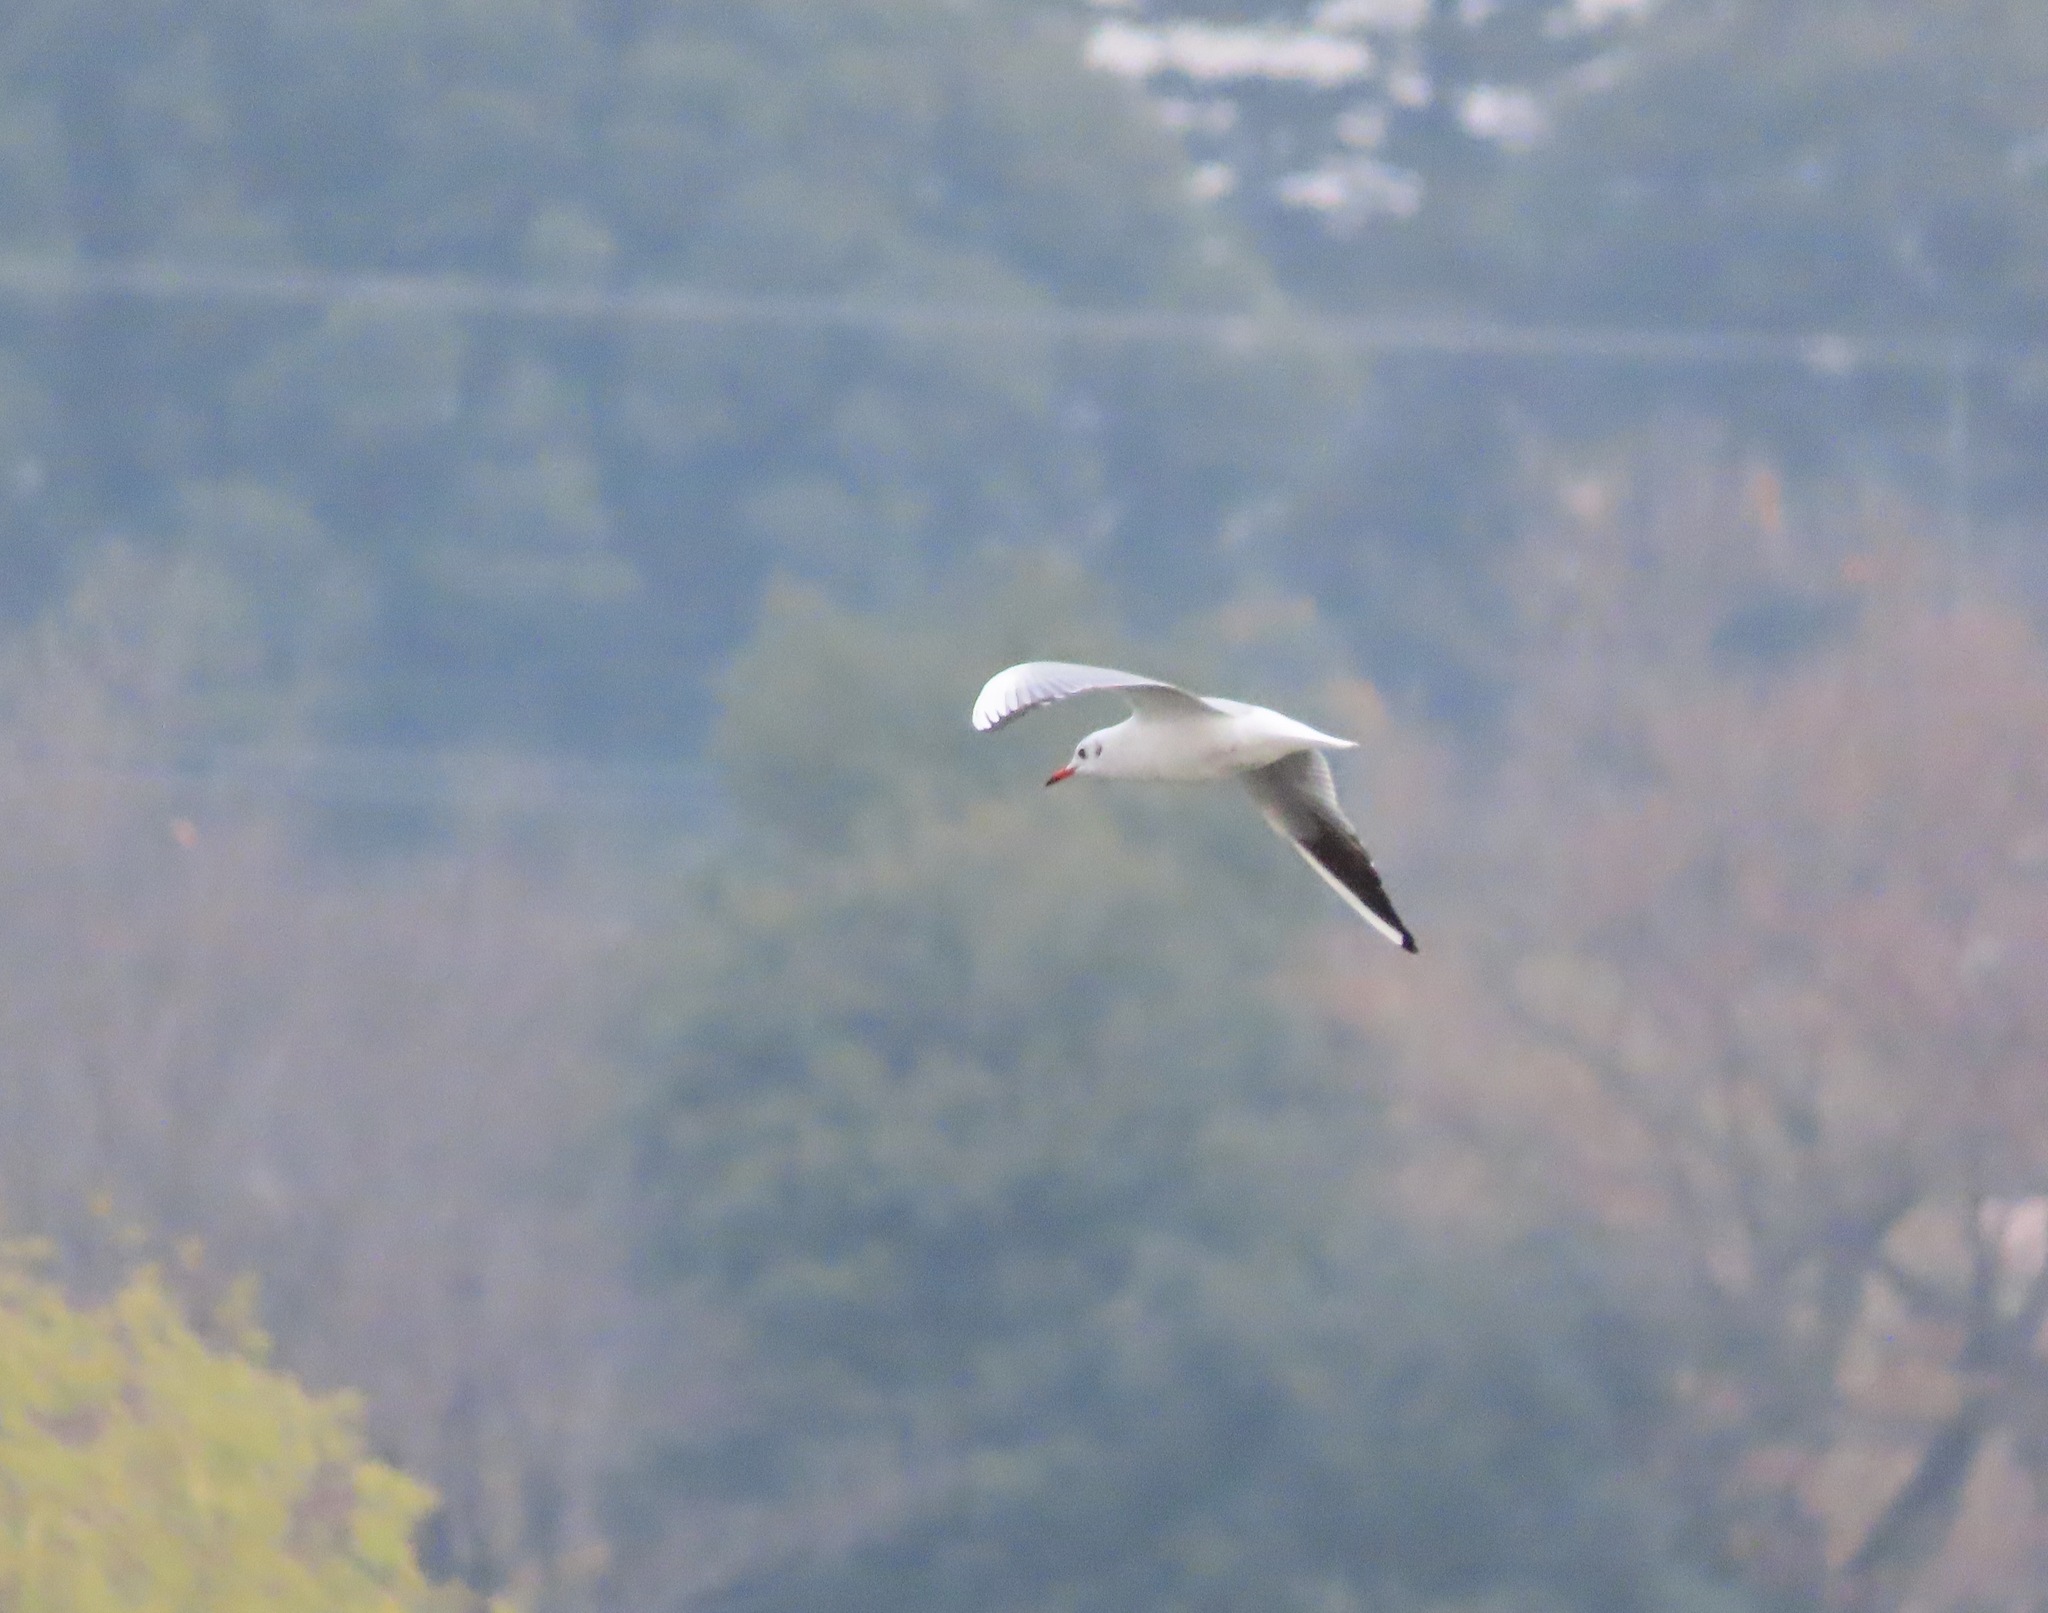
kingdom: Animalia
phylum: Chordata
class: Aves
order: Charadriiformes
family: Laridae
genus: Chroicocephalus
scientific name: Chroicocephalus ridibundus
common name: Black-headed gull
